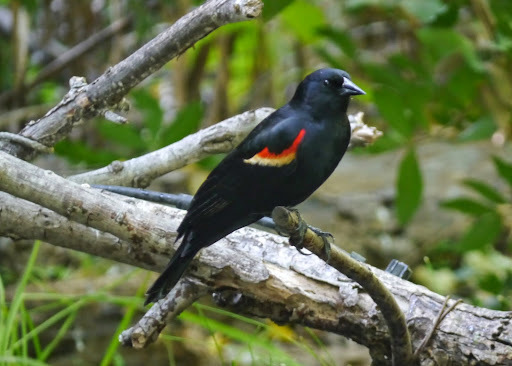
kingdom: Animalia
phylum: Chordata
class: Aves
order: Passeriformes
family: Icteridae
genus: Agelaius
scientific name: Agelaius phoeniceus
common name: Red-winged blackbird
